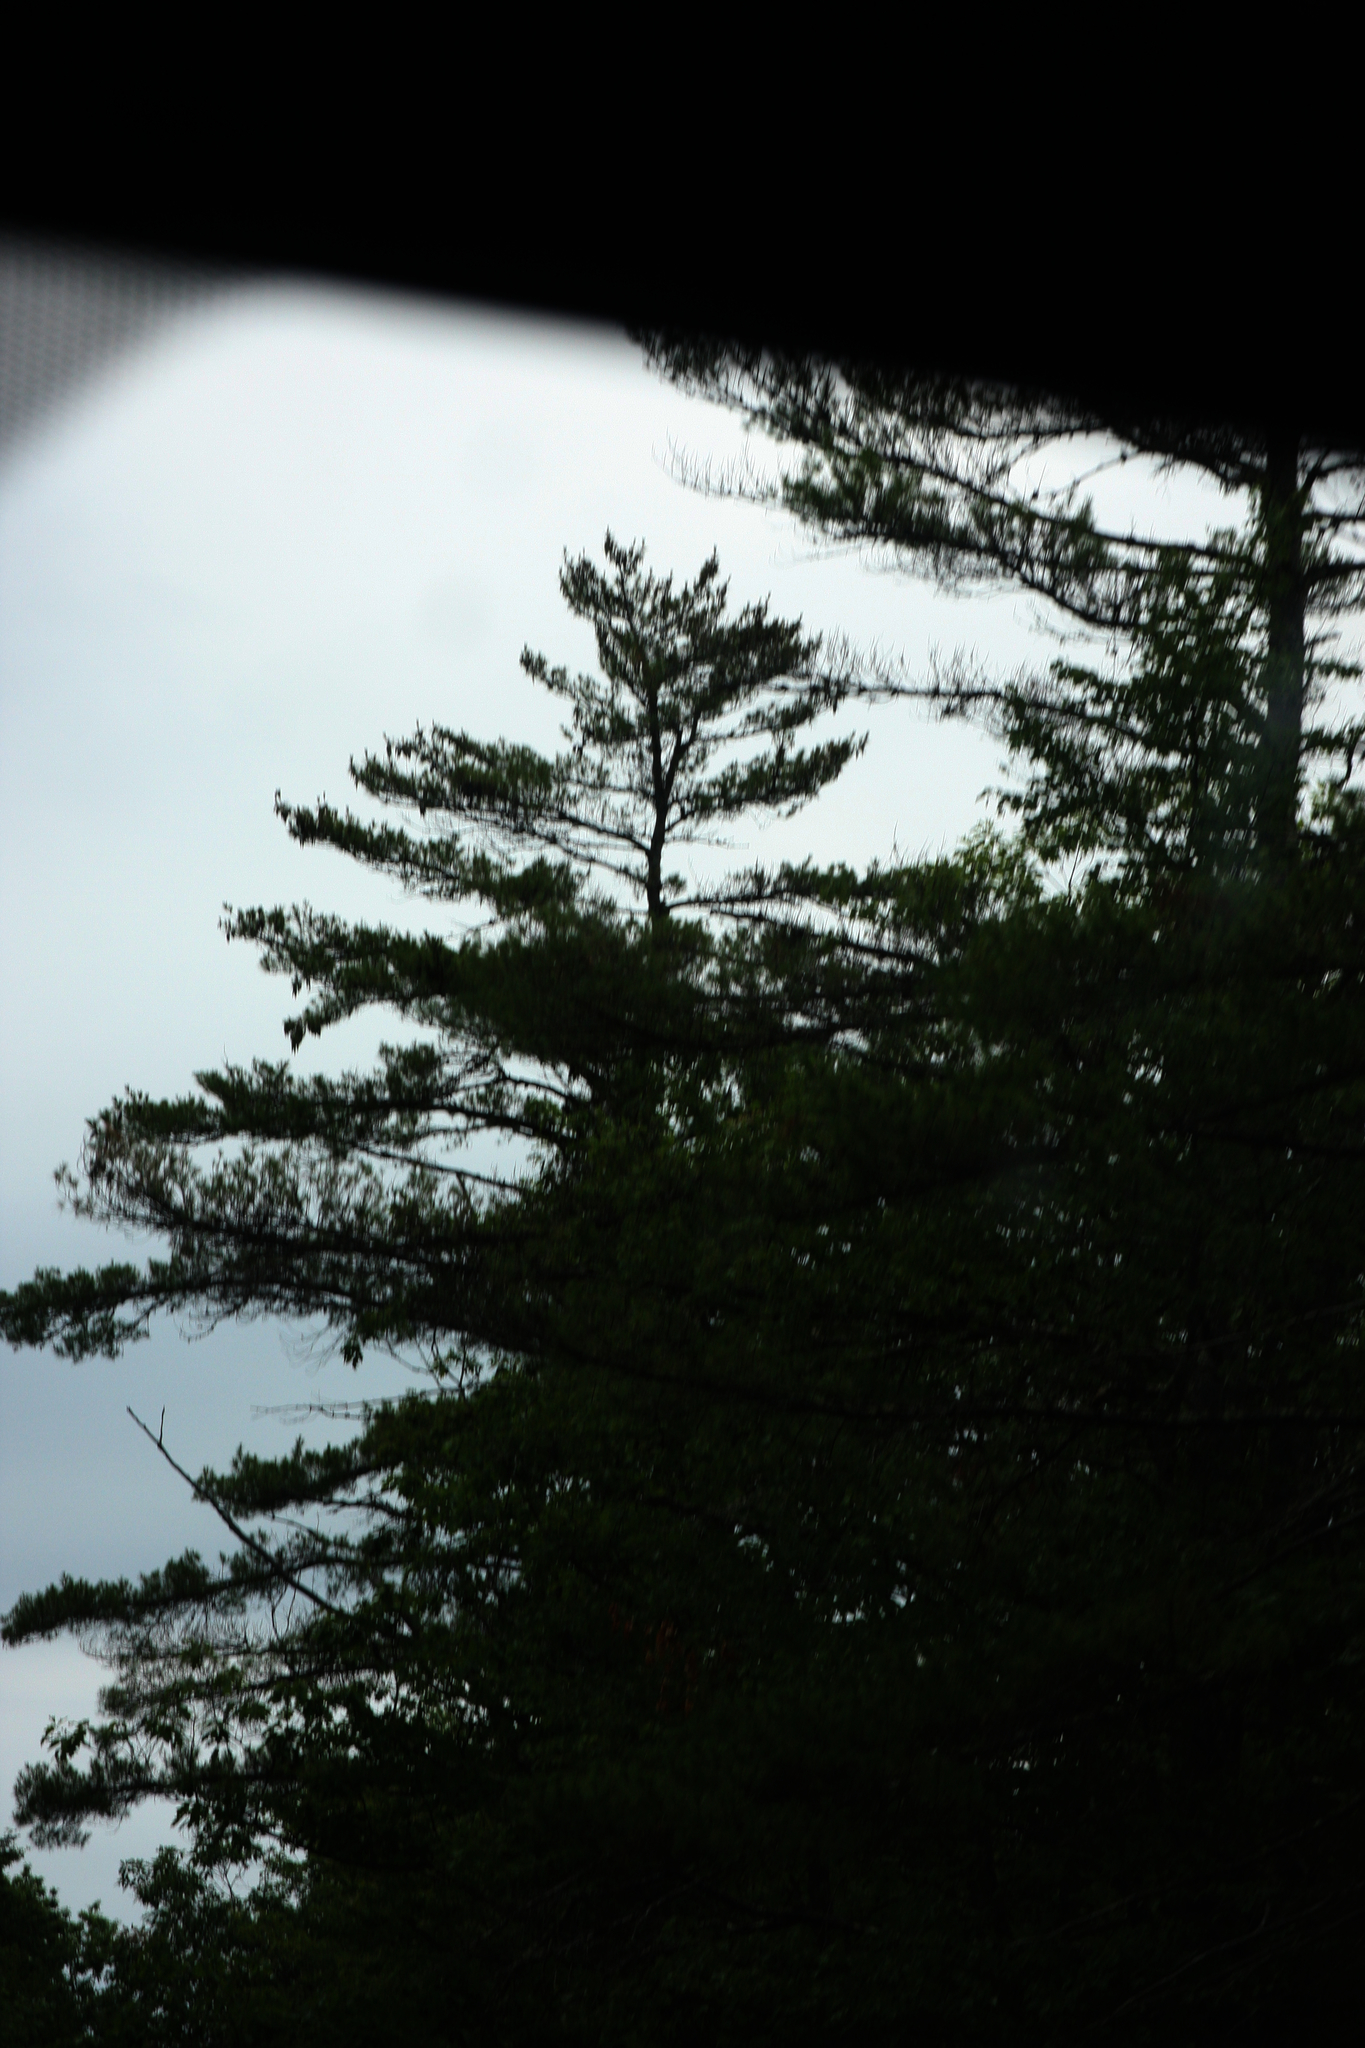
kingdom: Plantae
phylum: Tracheophyta
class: Pinopsida
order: Pinales
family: Pinaceae
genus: Pinus
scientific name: Pinus strobus
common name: Weymouth pine
